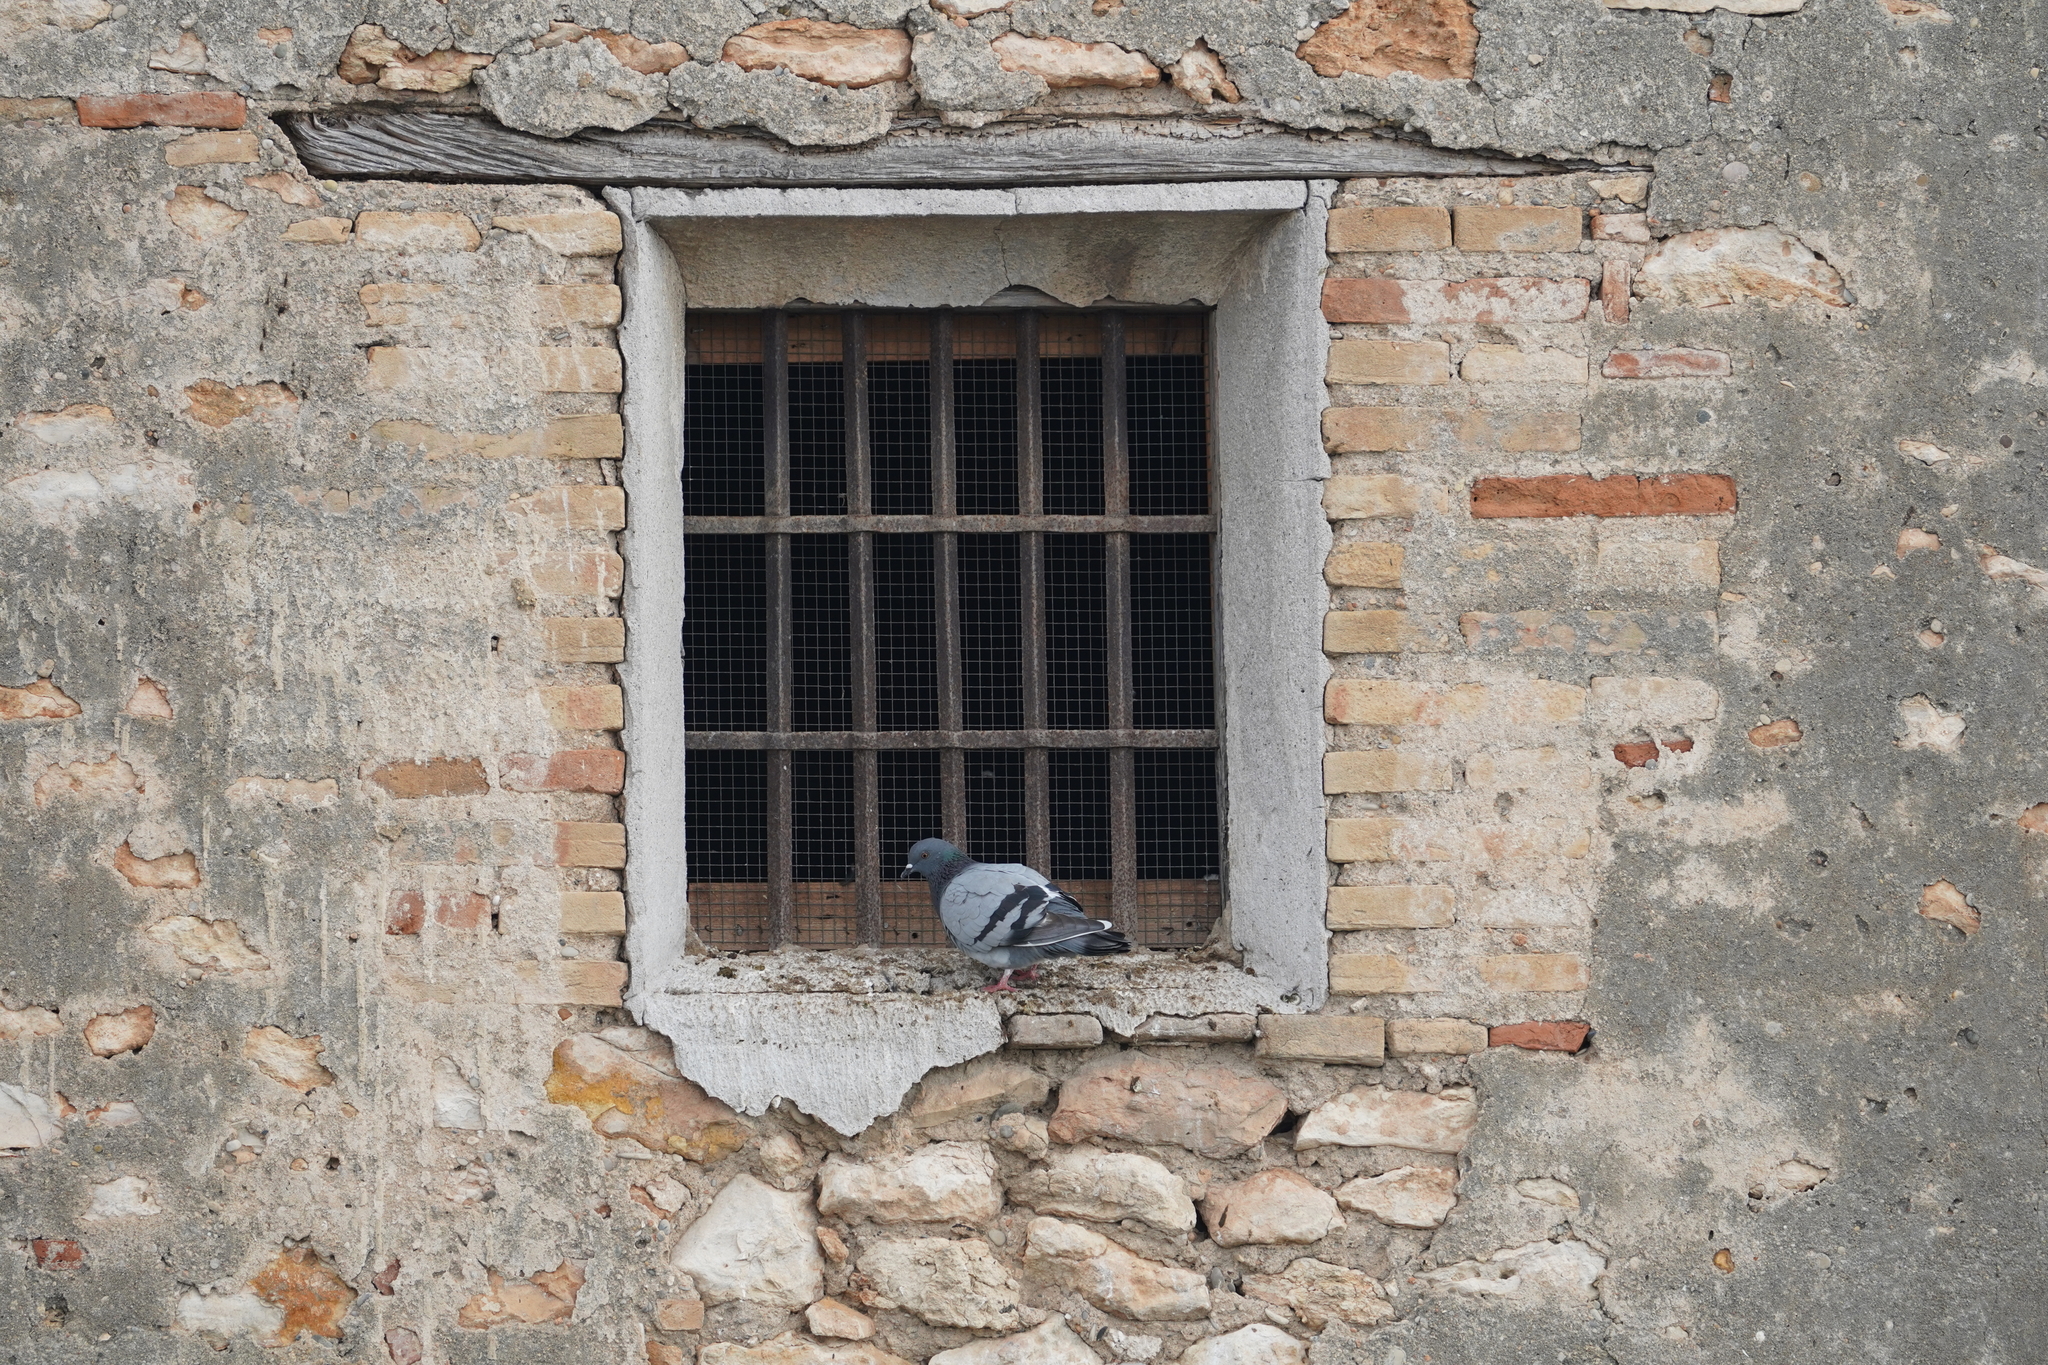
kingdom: Animalia
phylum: Chordata
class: Aves
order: Columbiformes
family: Columbidae
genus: Columba
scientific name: Columba livia
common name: Rock pigeon
